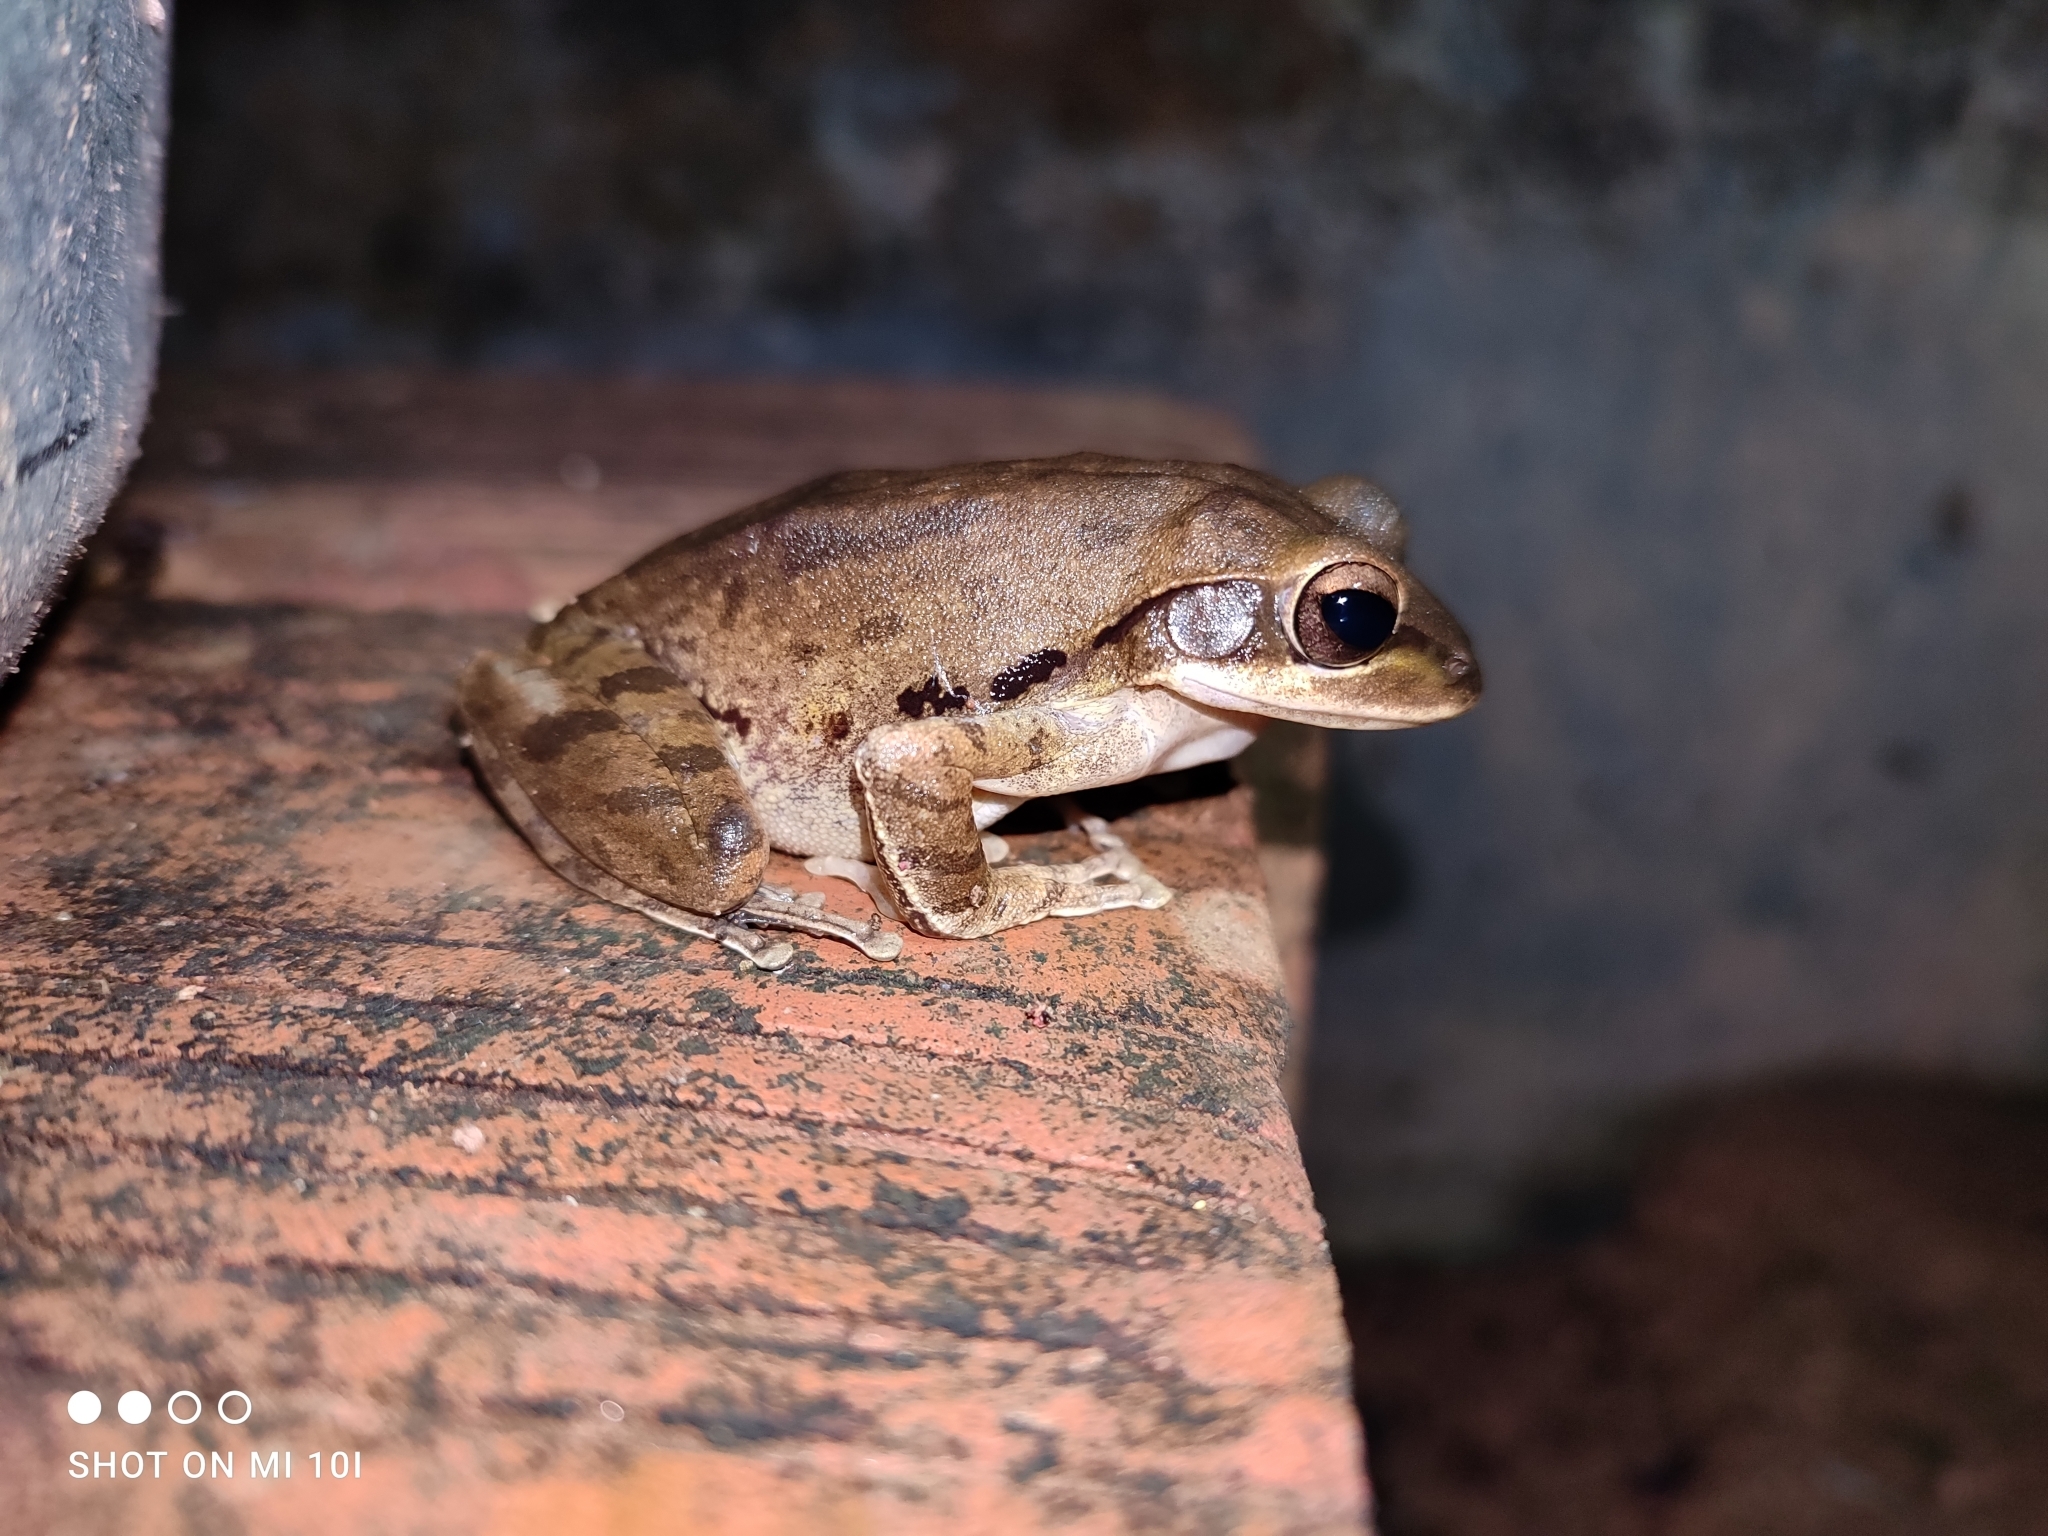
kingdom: Animalia
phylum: Chordata
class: Amphibia
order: Anura
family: Rhacophoridae
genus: Polypedates
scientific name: Polypedates maculatus
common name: Himalayan tree frog
